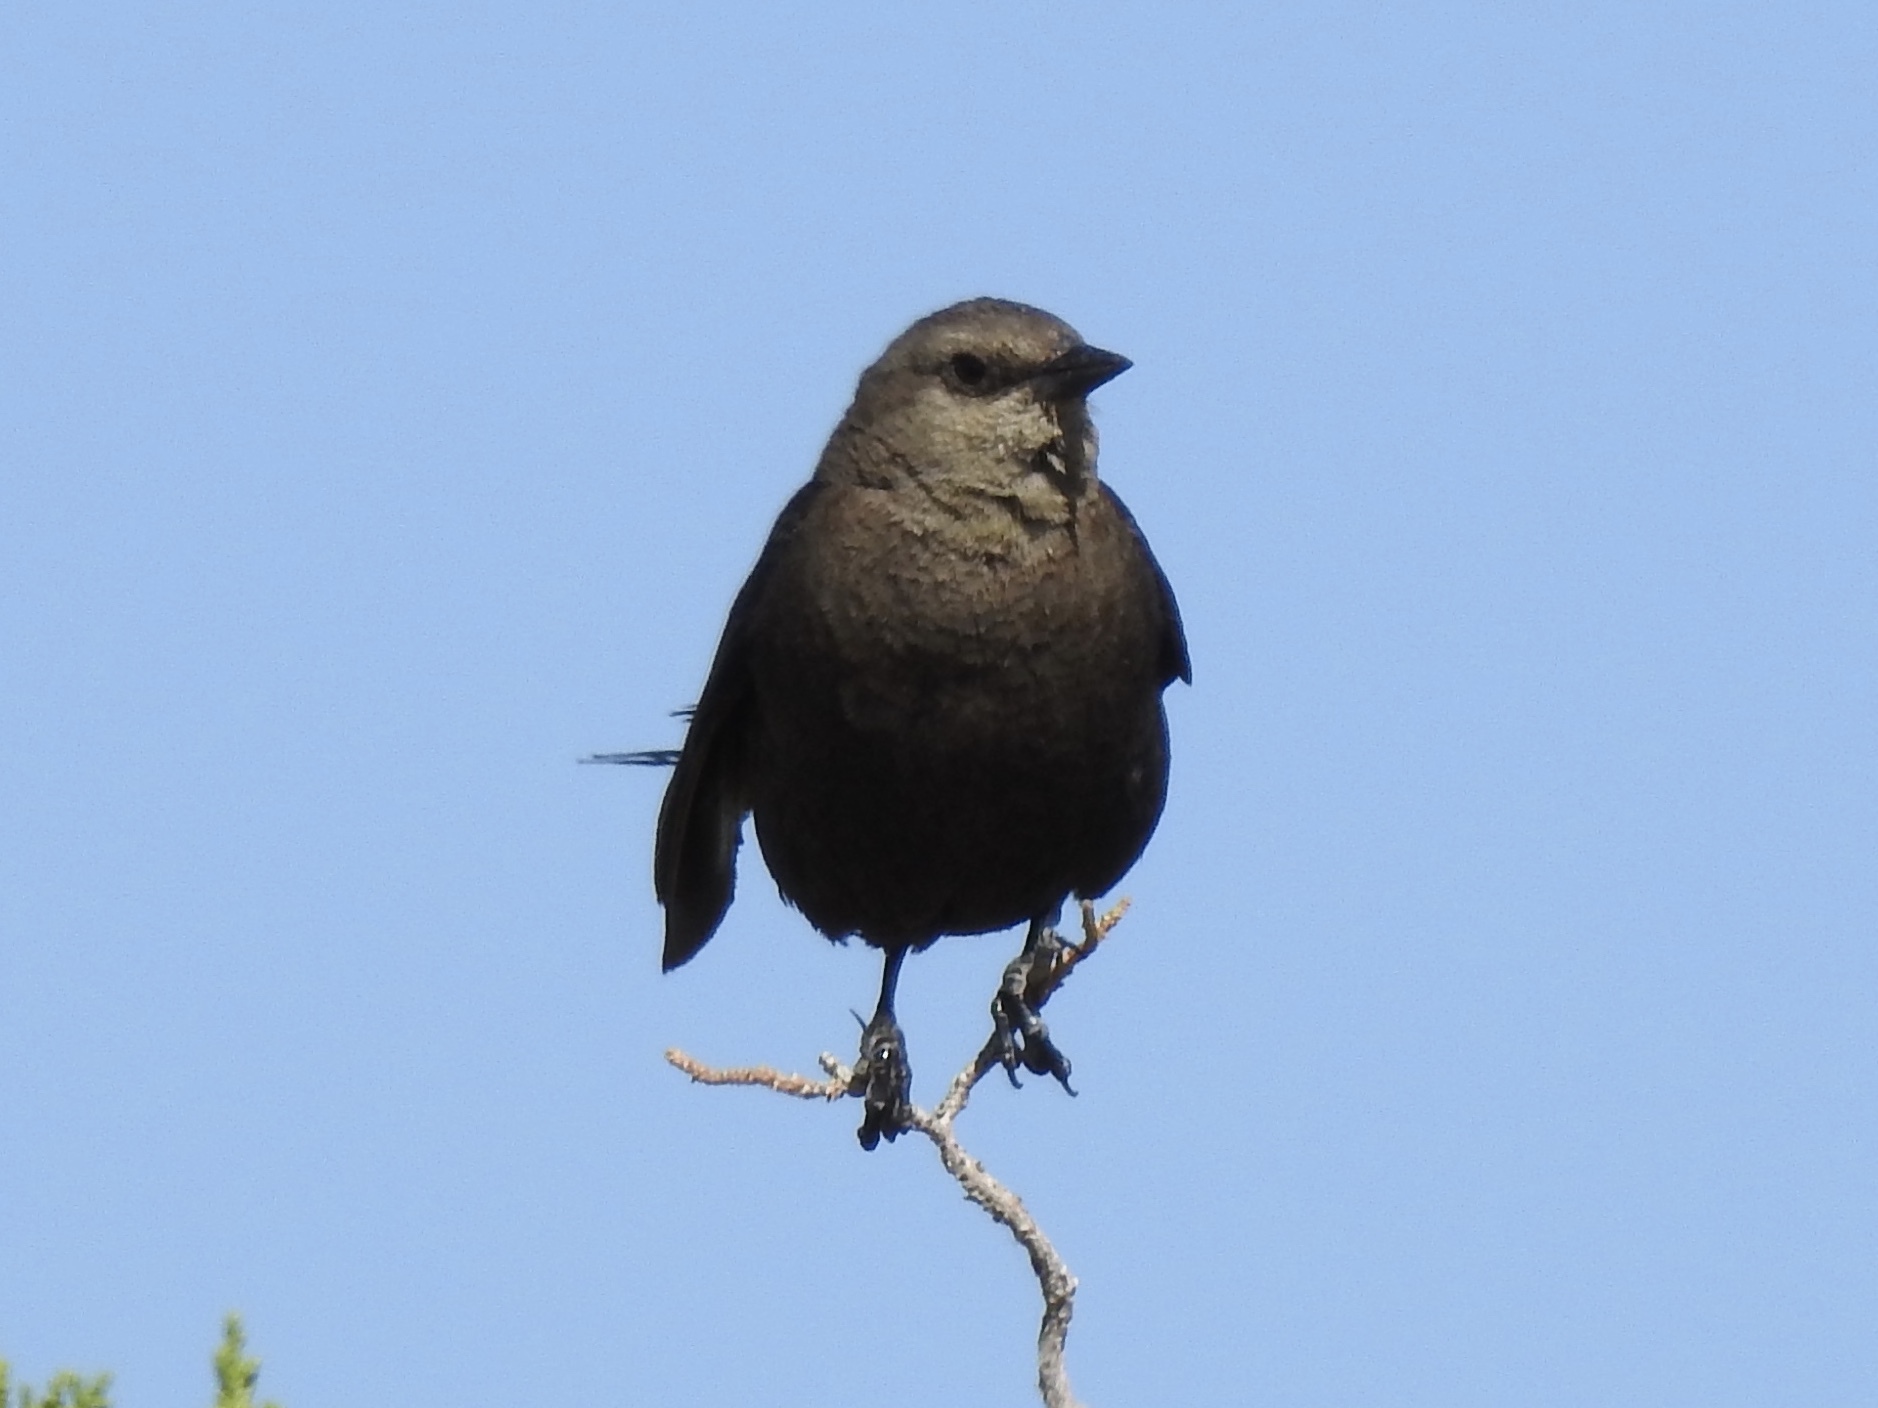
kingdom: Animalia
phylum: Chordata
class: Aves
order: Passeriformes
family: Icteridae
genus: Euphagus
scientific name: Euphagus cyanocephalus
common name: Brewer's blackbird
